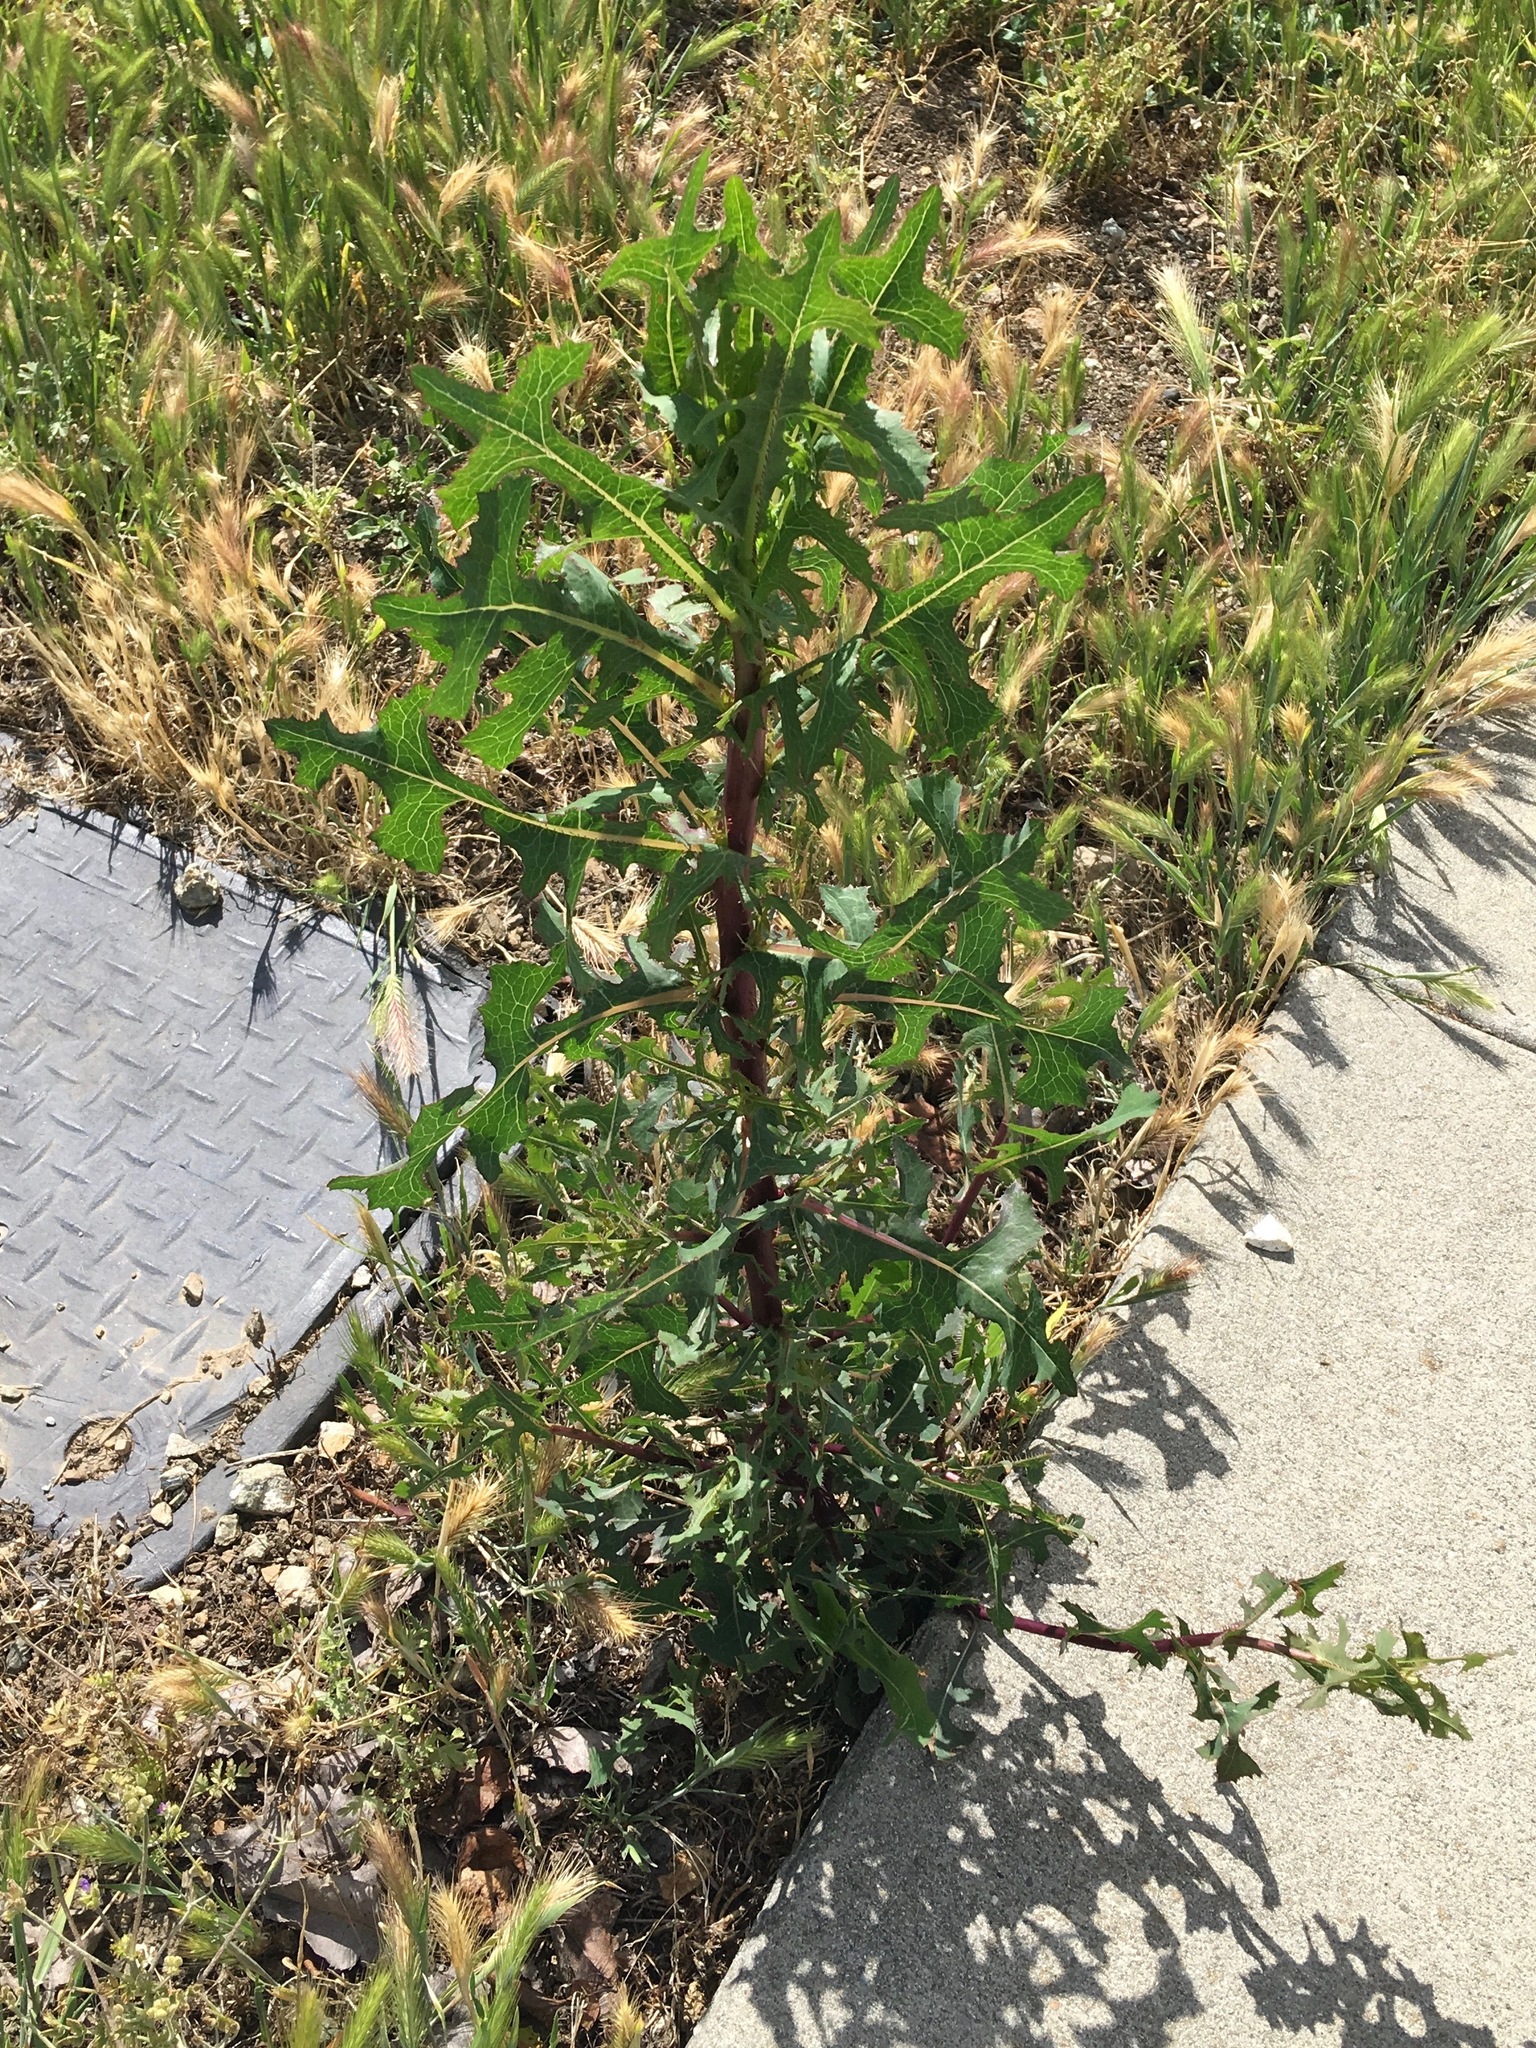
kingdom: Plantae
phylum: Tracheophyta
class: Magnoliopsida
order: Asterales
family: Asteraceae
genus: Lactuca
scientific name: Lactuca serriola
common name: Prickly lettuce
